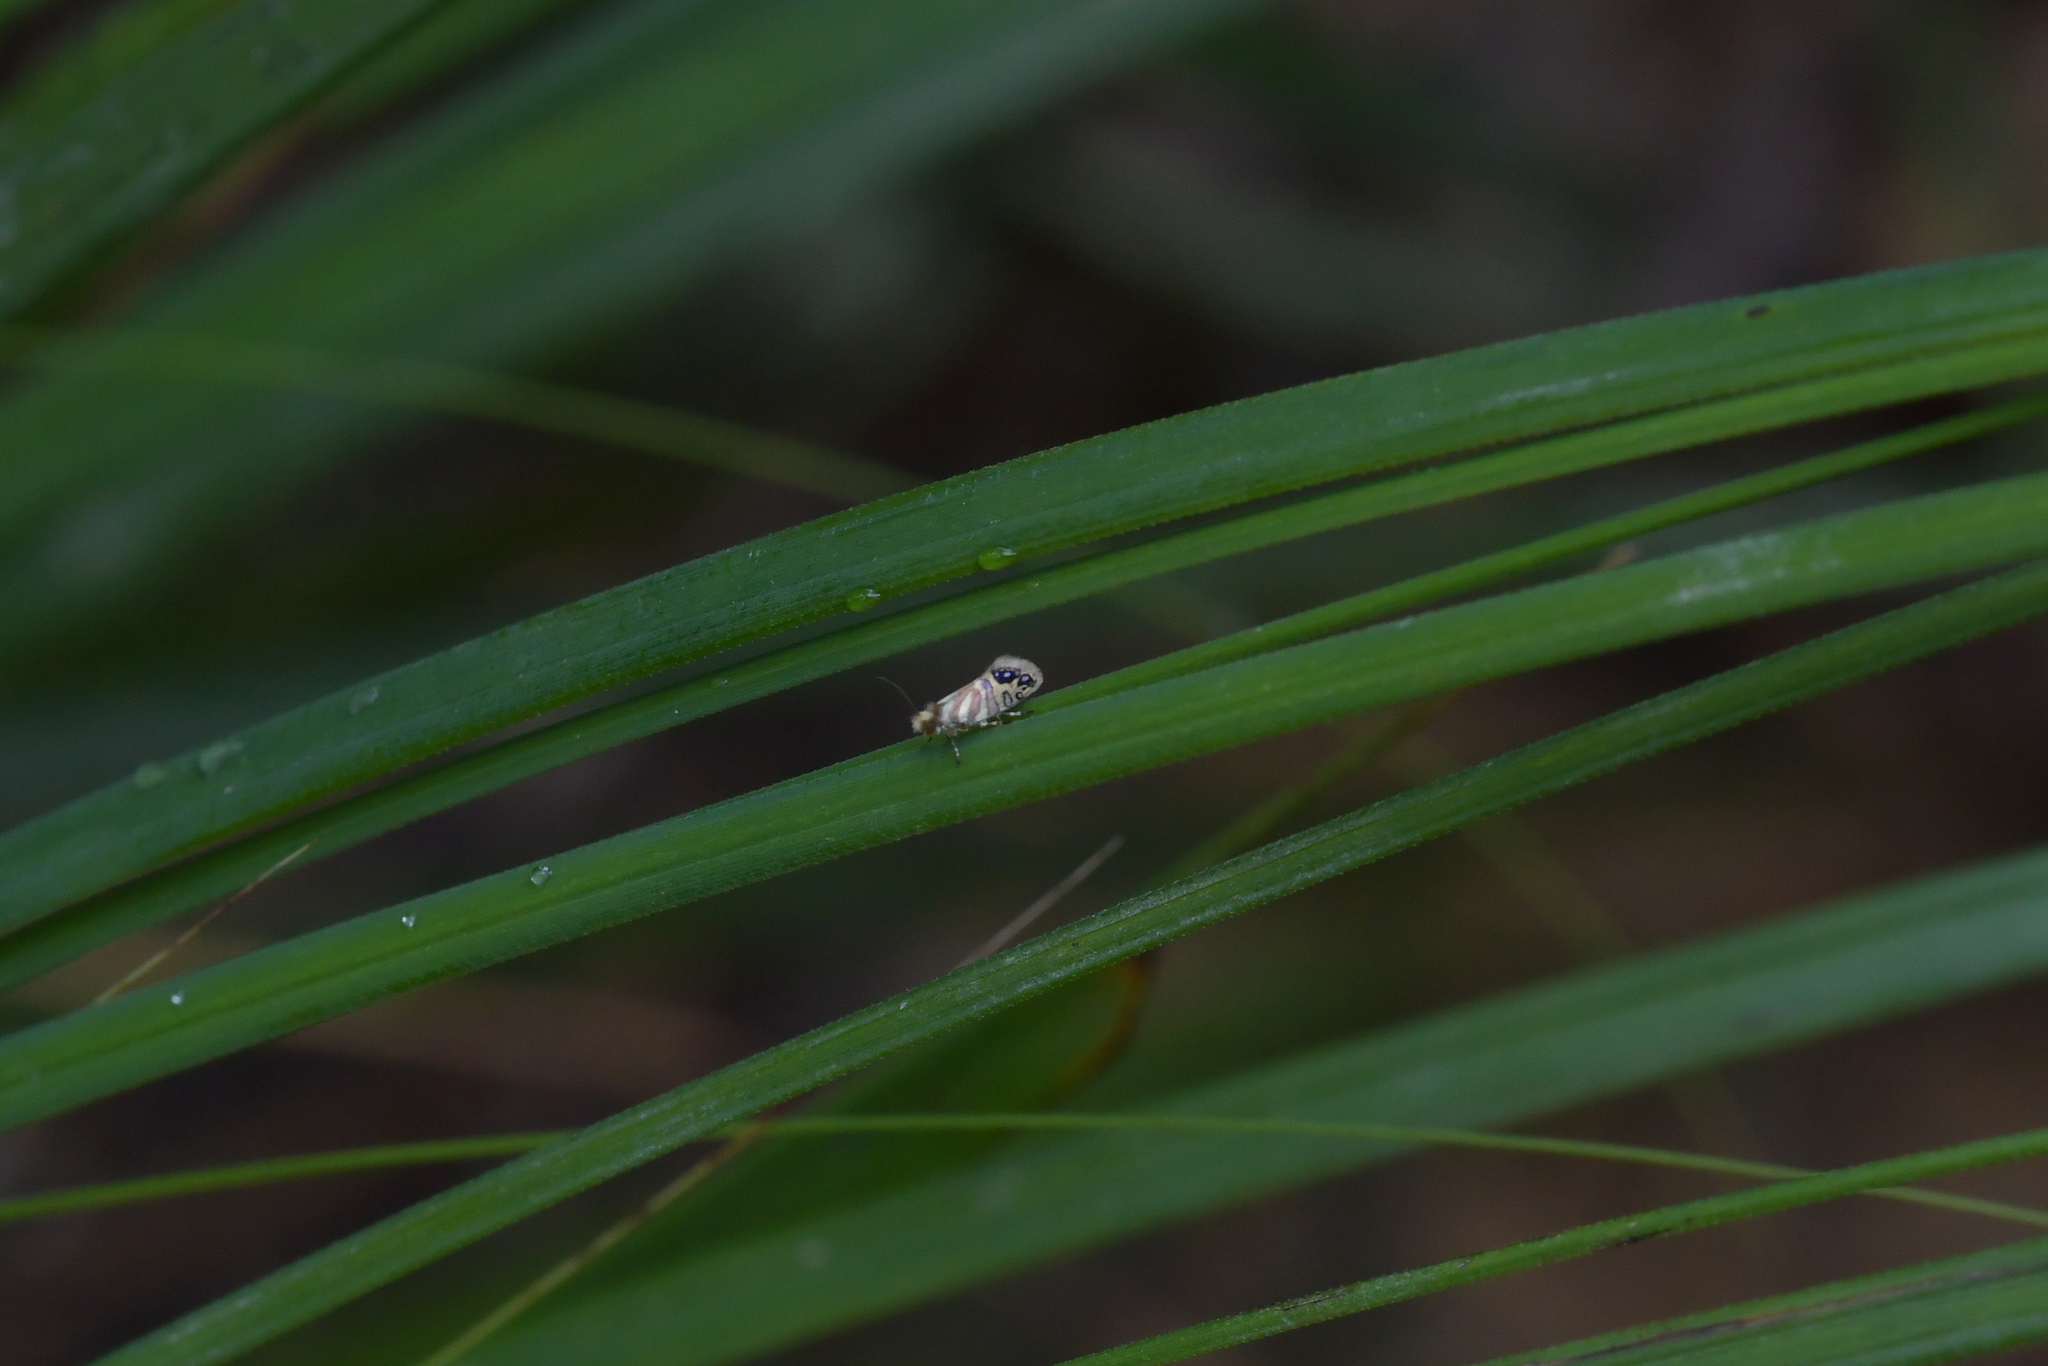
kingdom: Animalia
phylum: Arthropoda
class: Insecta
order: Lepidoptera
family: Micropterigidae
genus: Sabatinca
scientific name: Sabatinca doroxena
